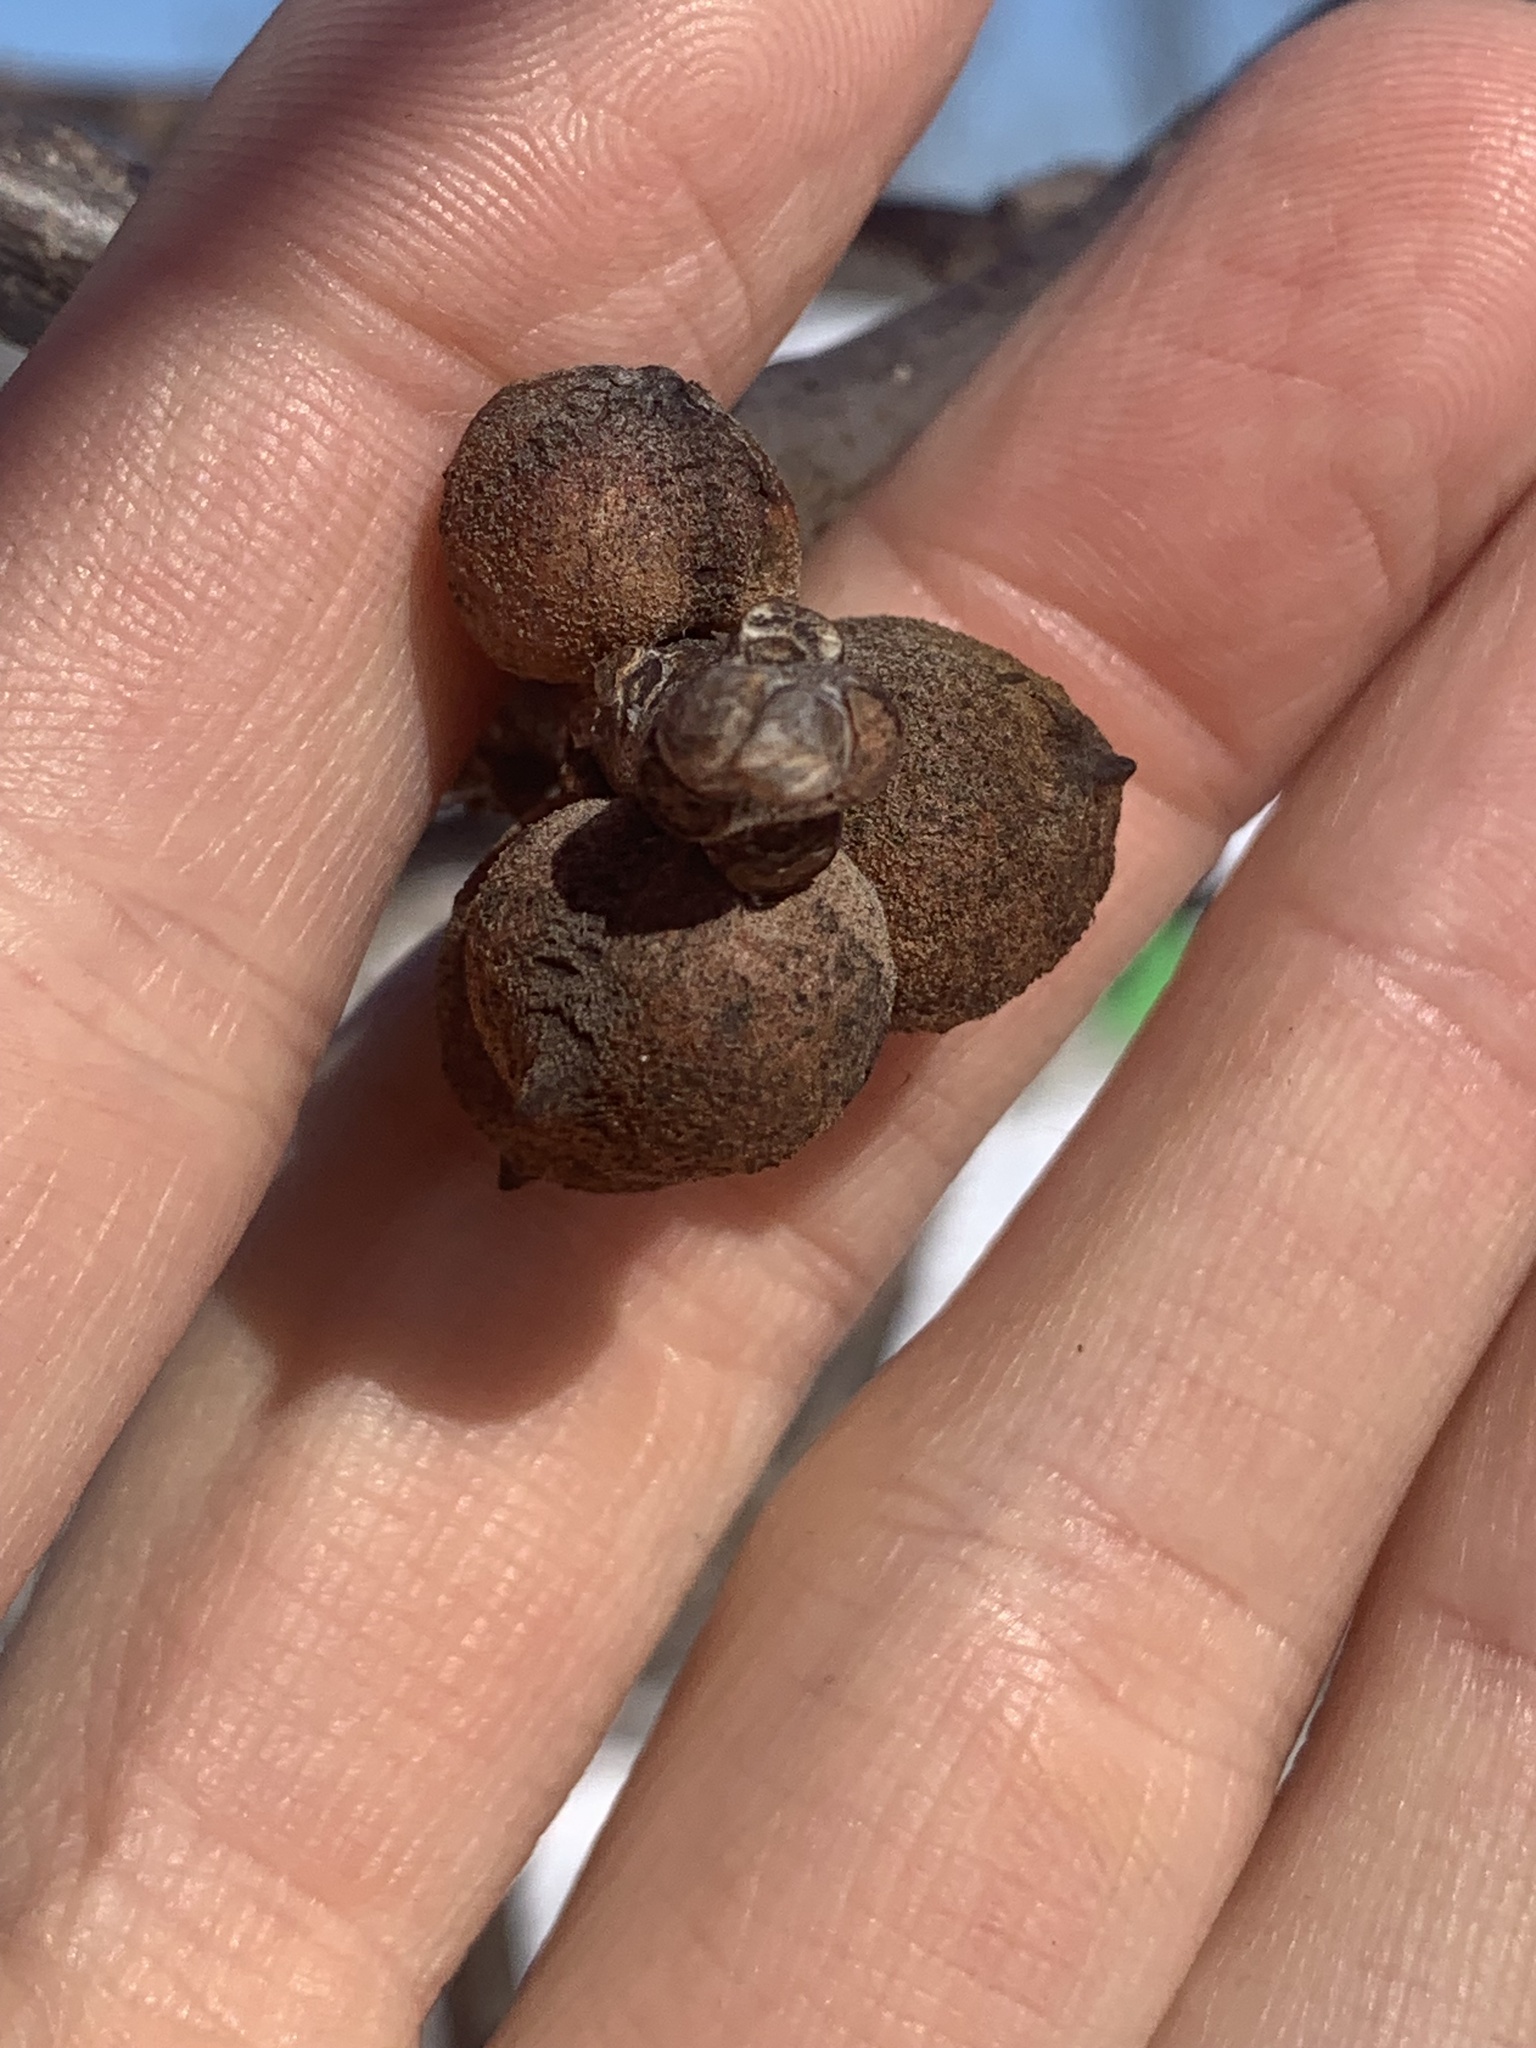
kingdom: Animalia
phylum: Arthropoda
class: Insecta
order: Hymenoptera
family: Cynipidae
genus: Disholcaspis
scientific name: Disholcaspis
